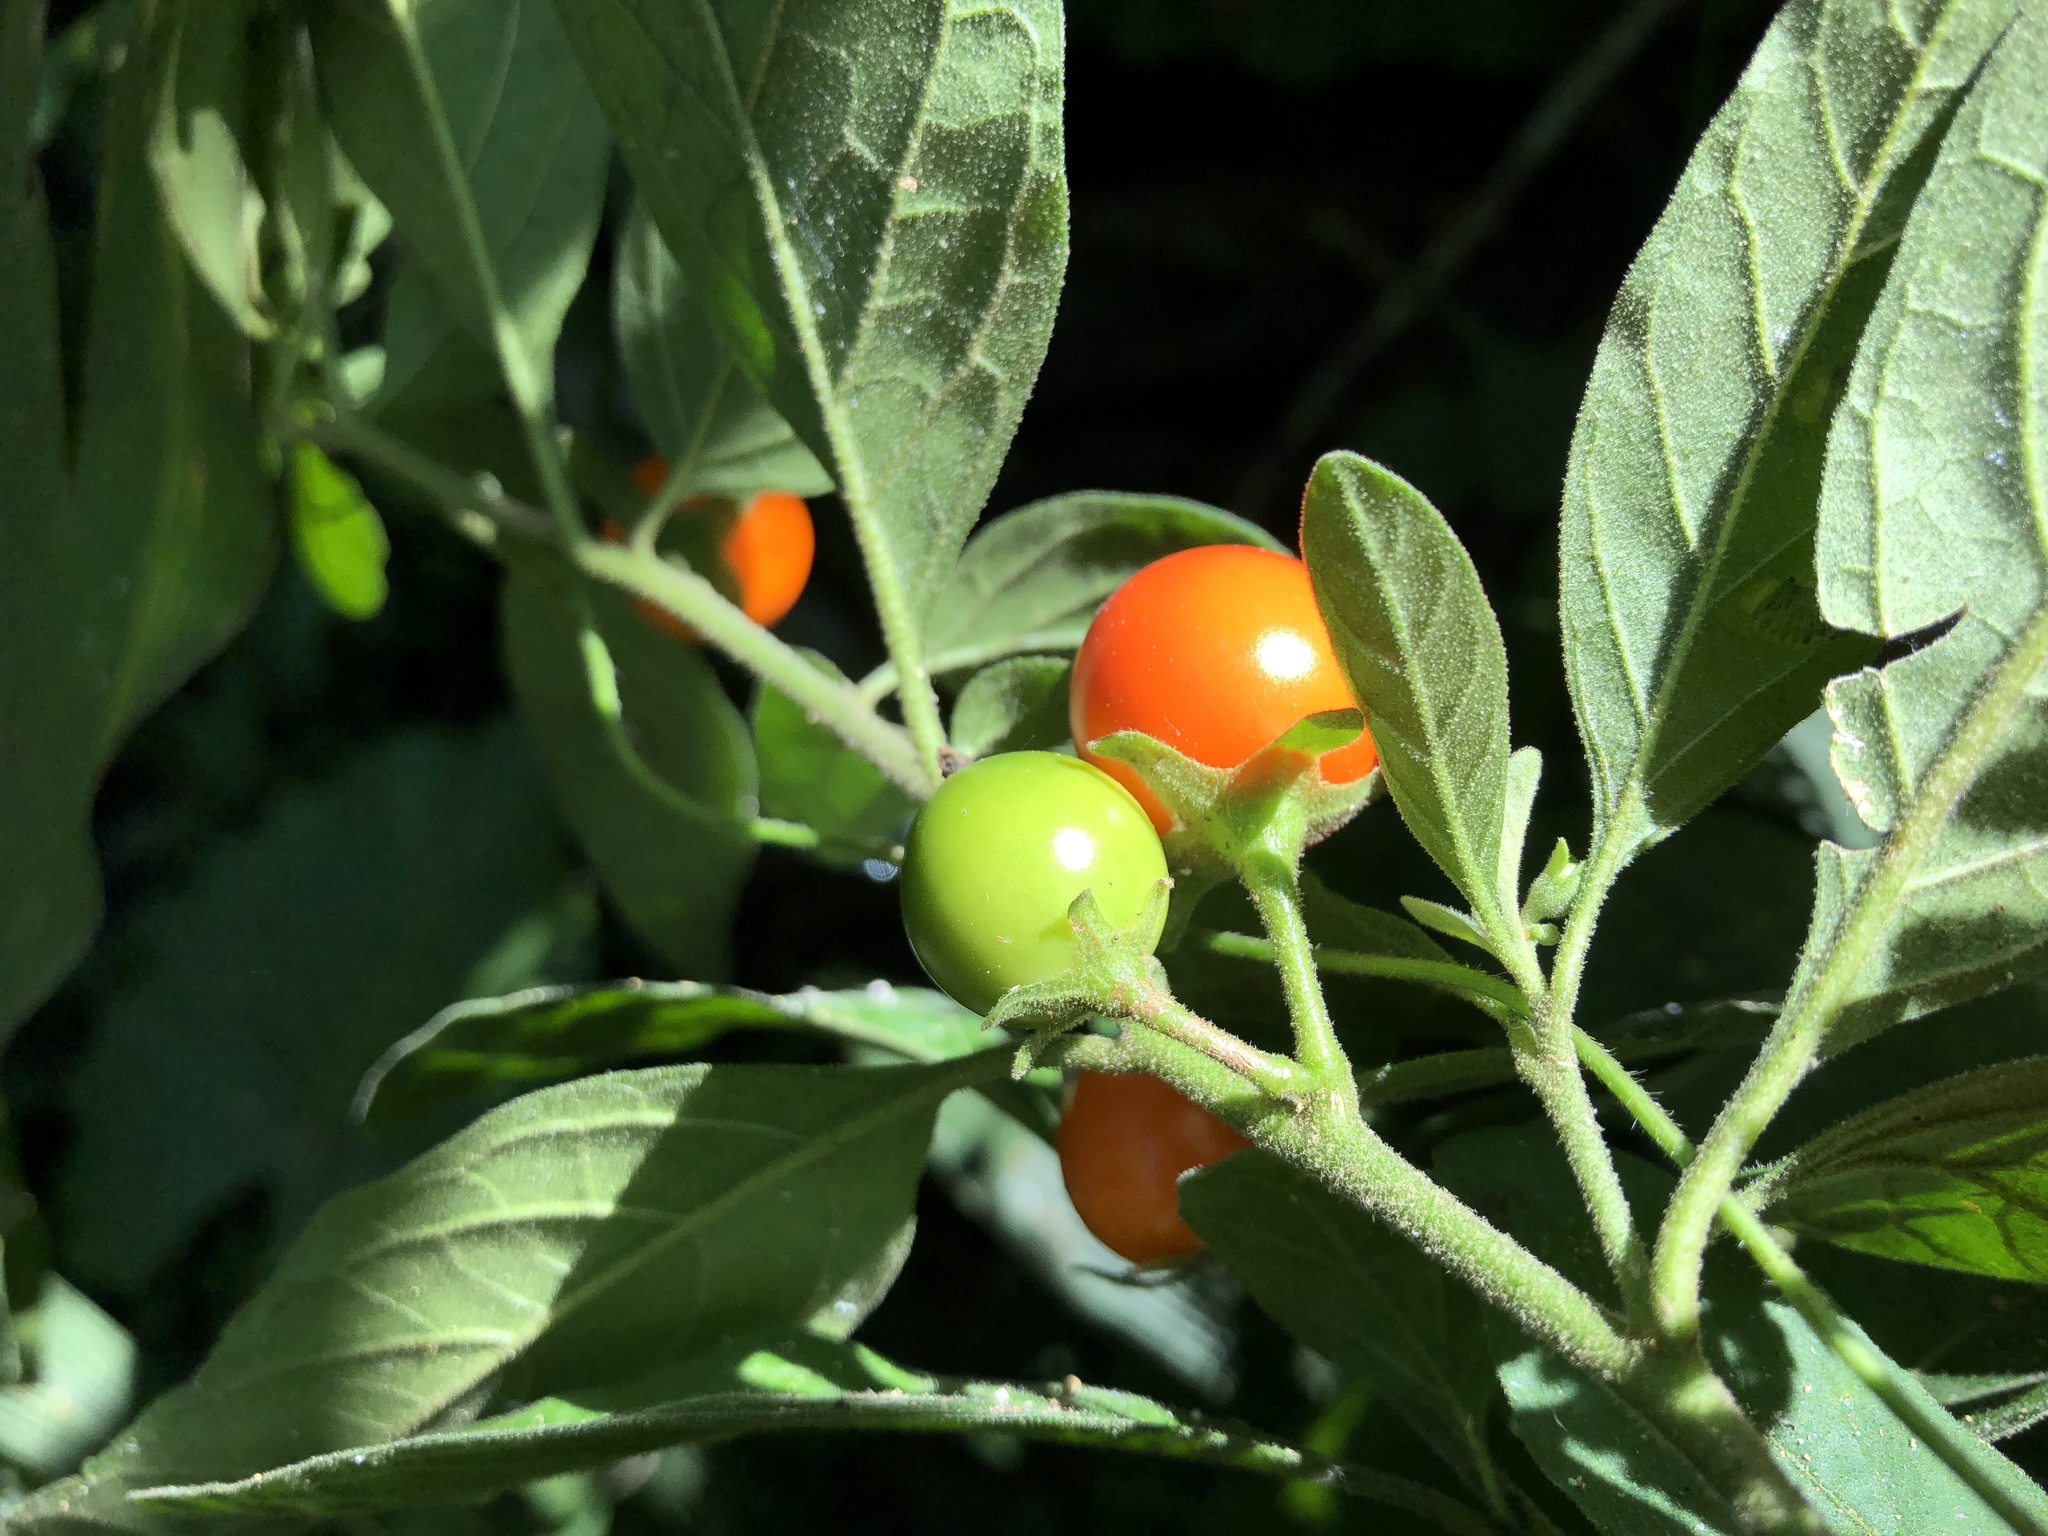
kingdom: Plantae
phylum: Tracheophyta
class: Magnoliopsida
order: Solanales
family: Solanaceae
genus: Solanum
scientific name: Solanum pseudocapsicum
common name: Jerusalem cherry
